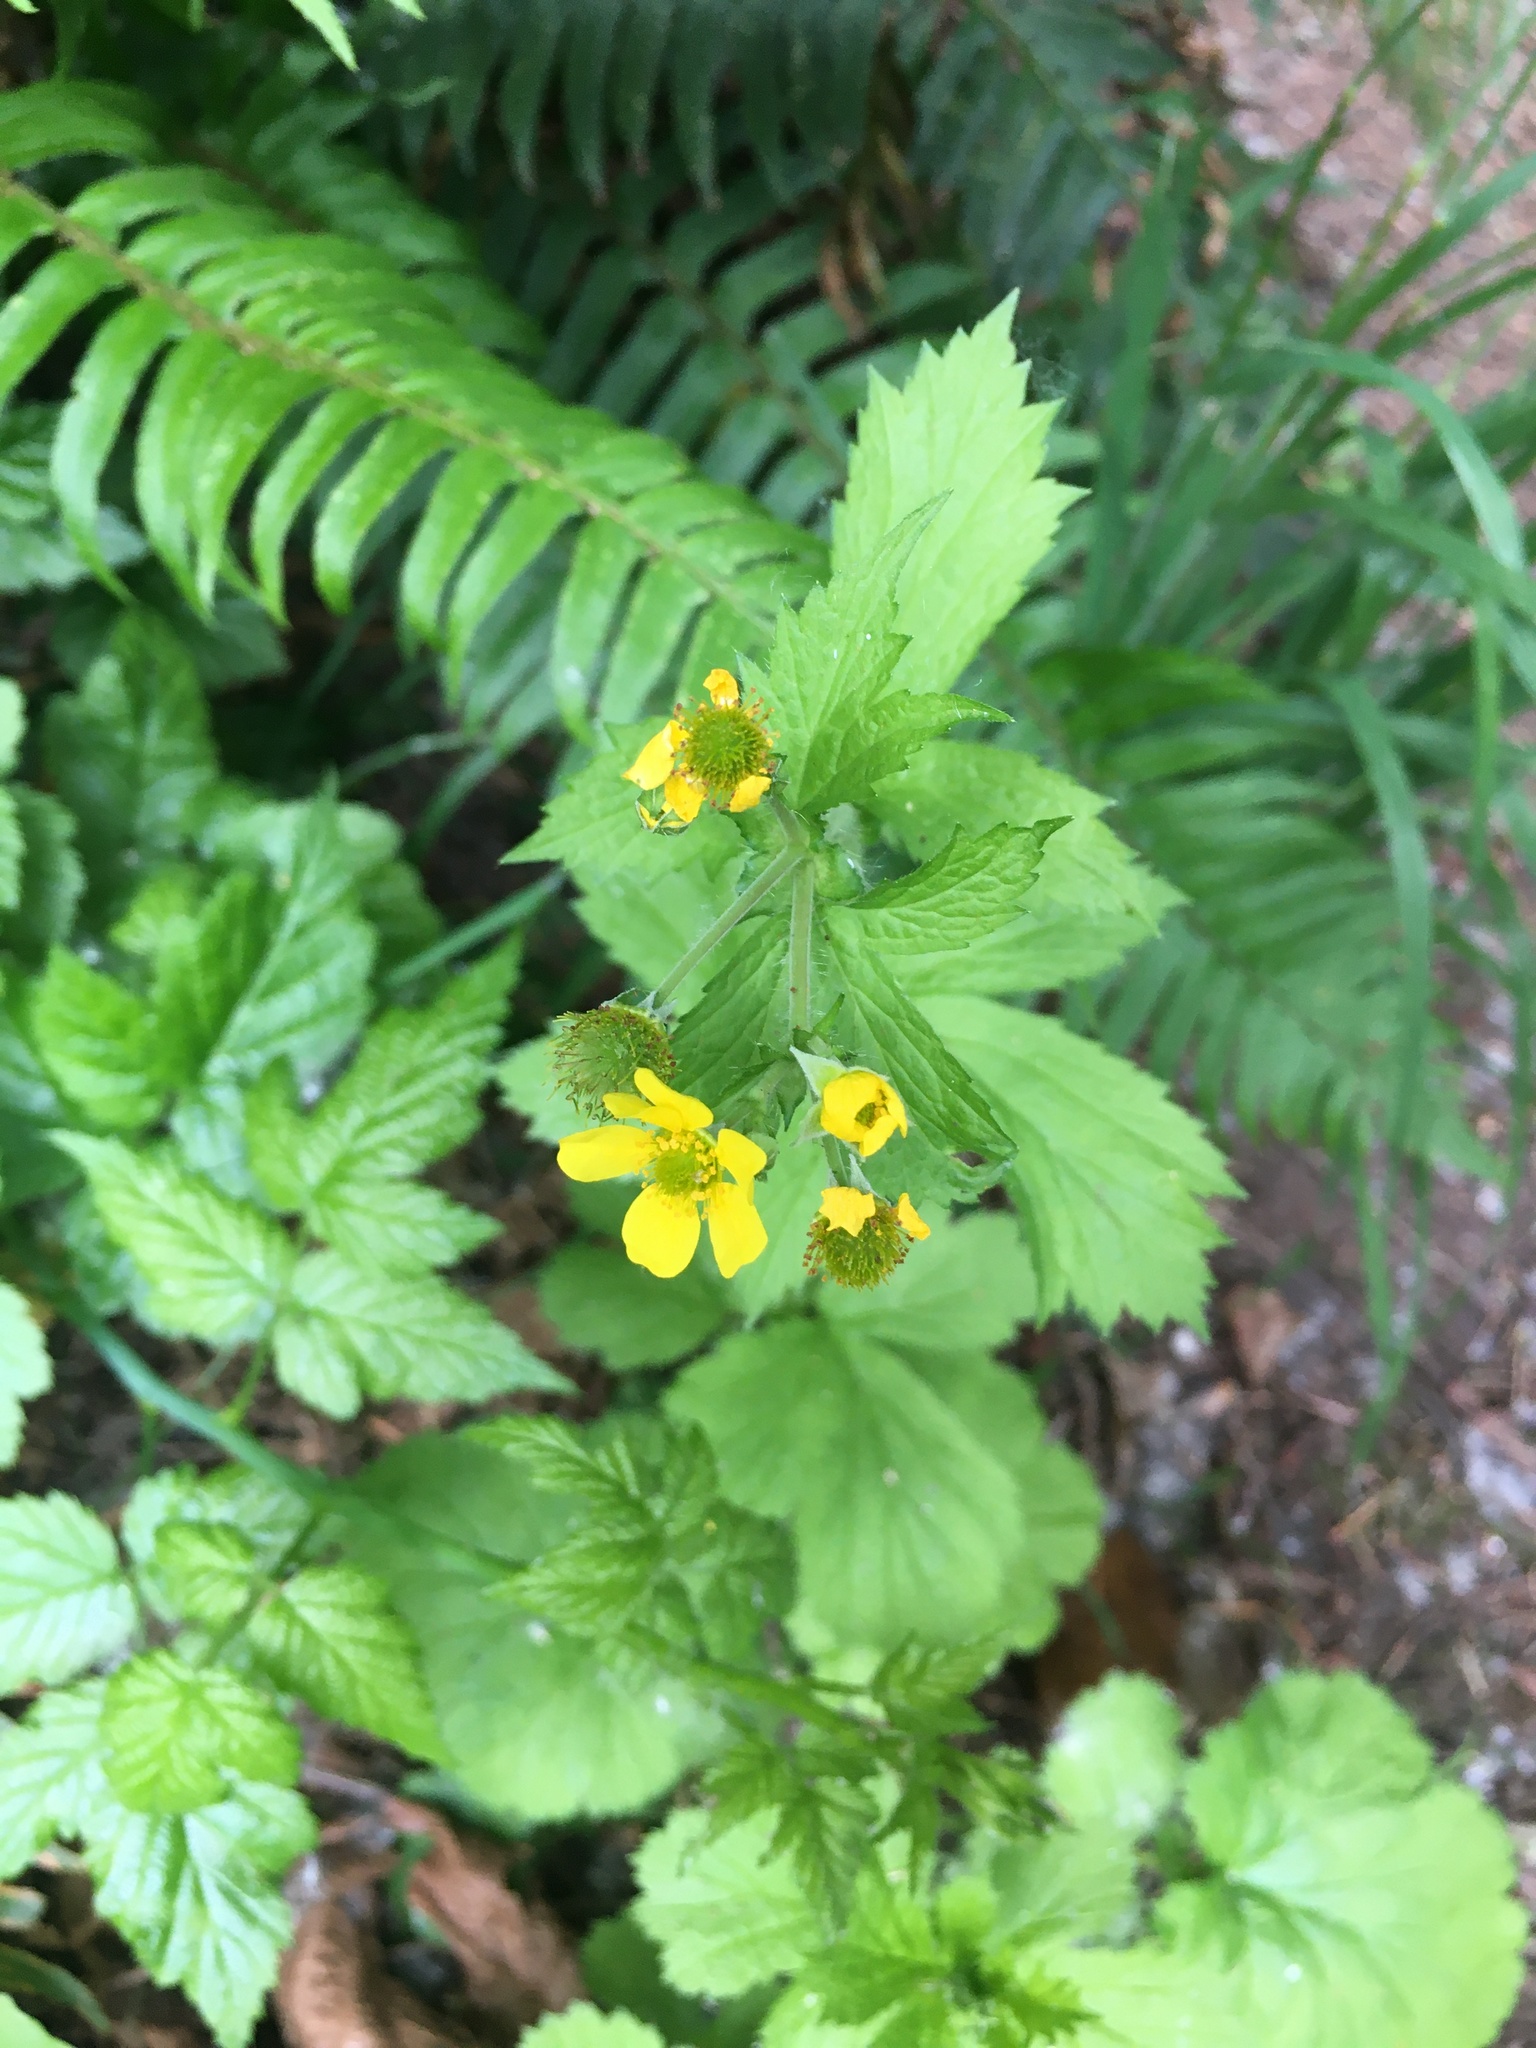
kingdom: Plantae
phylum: Tracheophyta
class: Magnoliopsida
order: Rosales
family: Rosaceae
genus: Geum
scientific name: Geum macrophyllum
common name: Large-leaved avens
